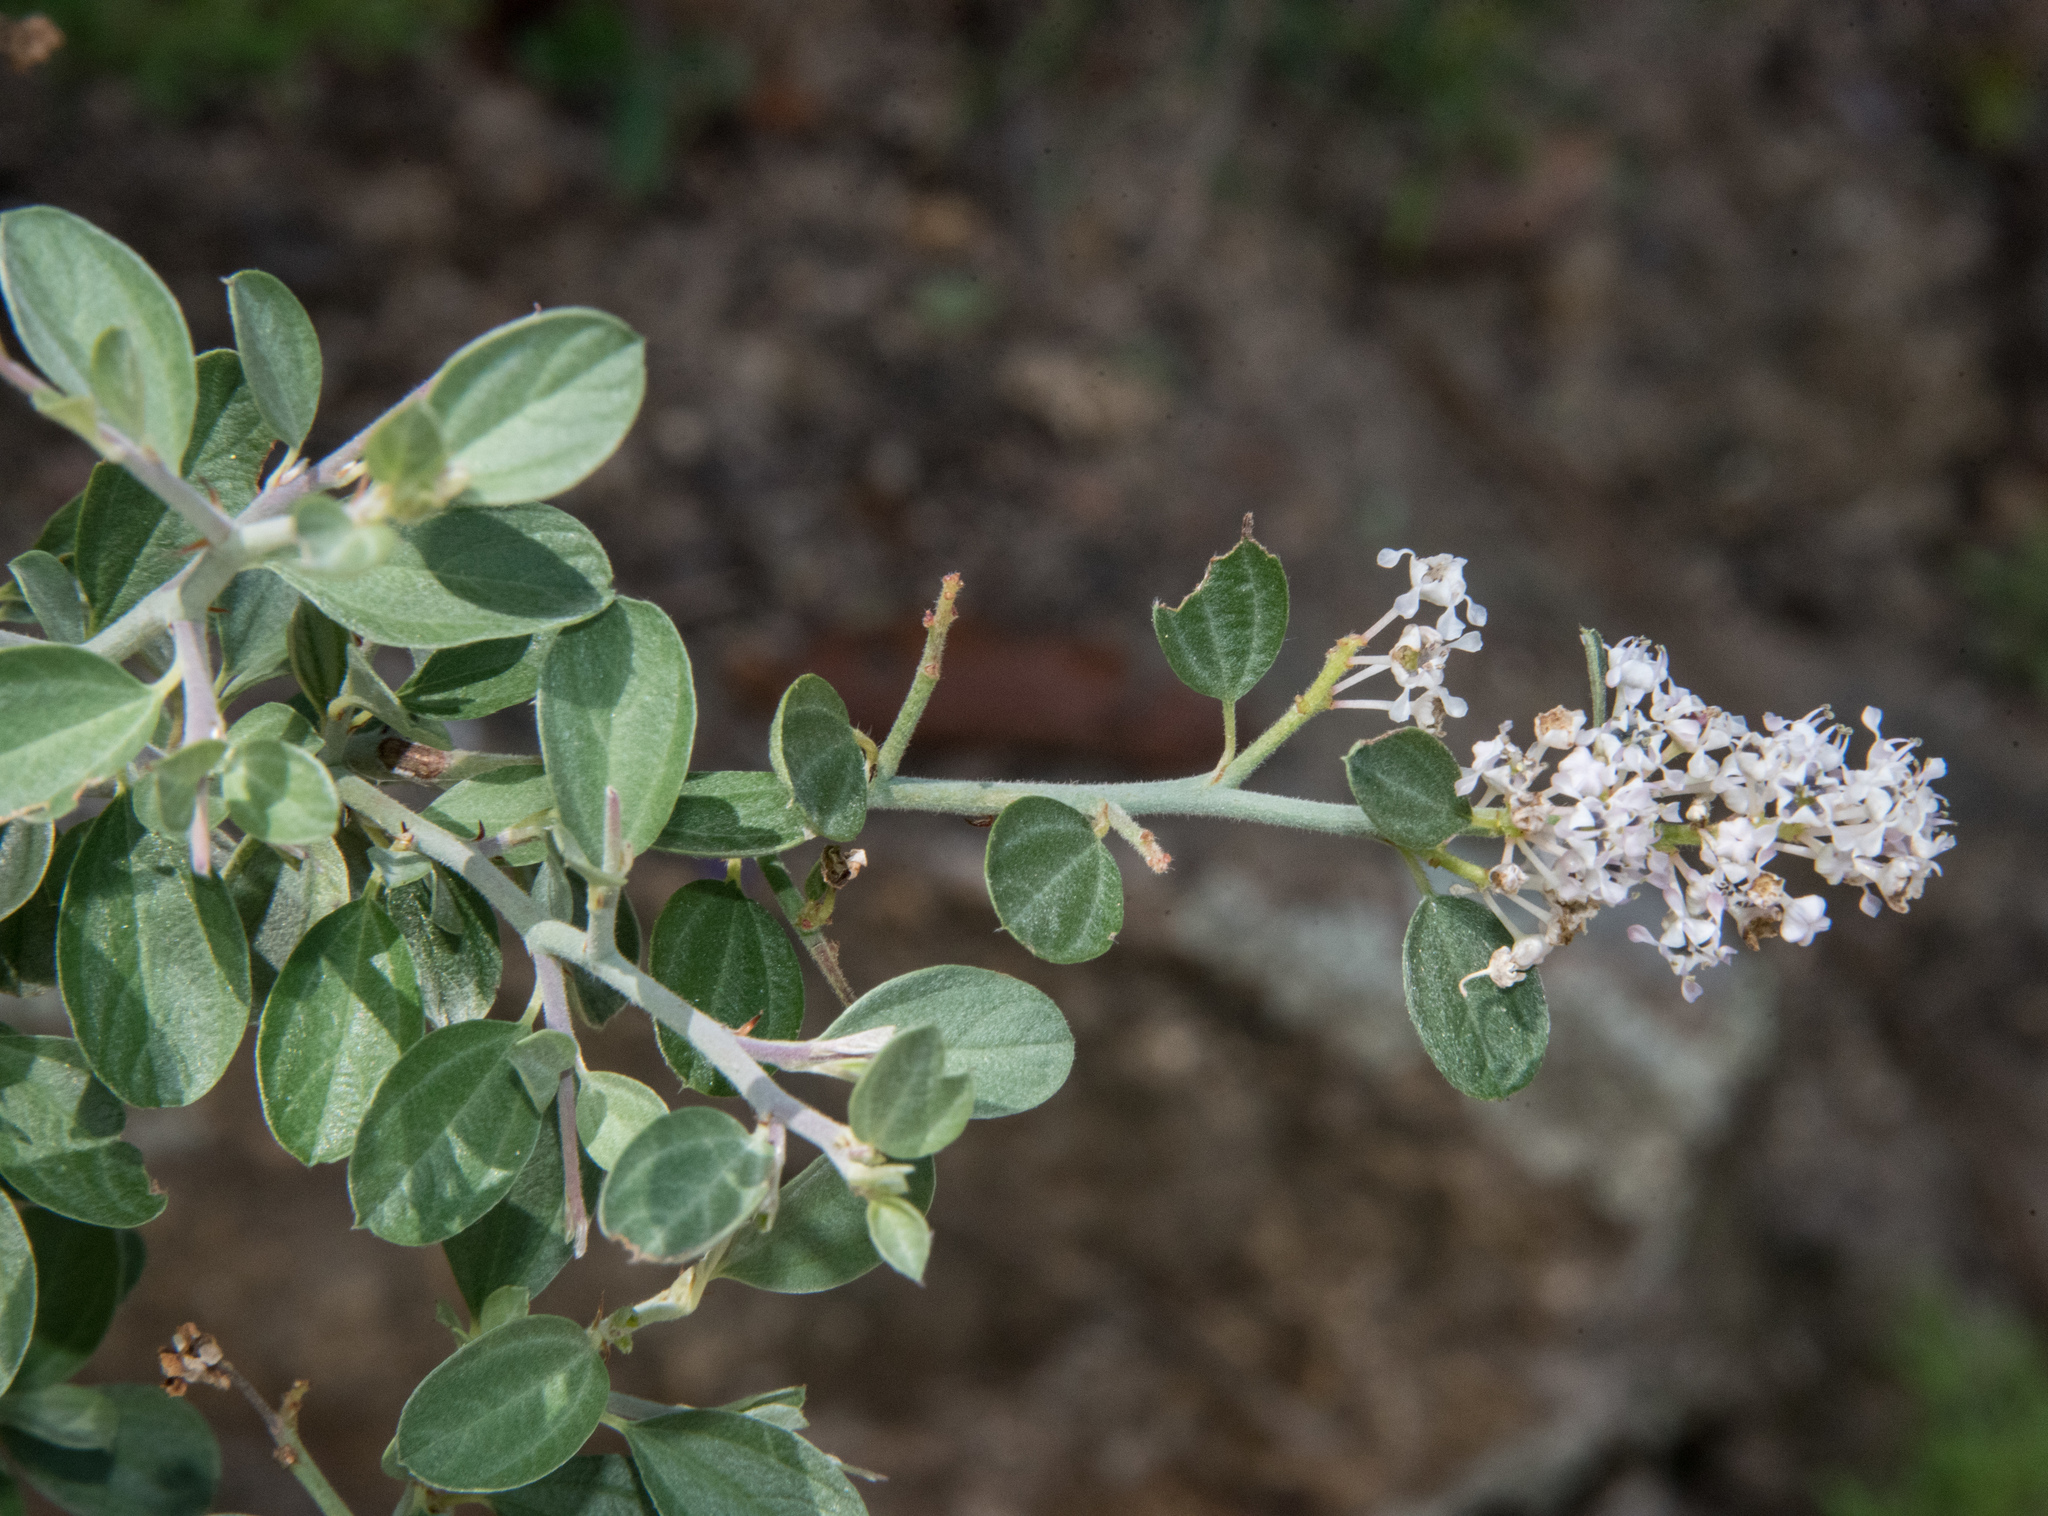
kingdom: Plantae
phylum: Tracheophyta
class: Magnoliopsida
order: Rosales
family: Rhamnaceae
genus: Ceanothus
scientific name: Ceanothus fendleri
